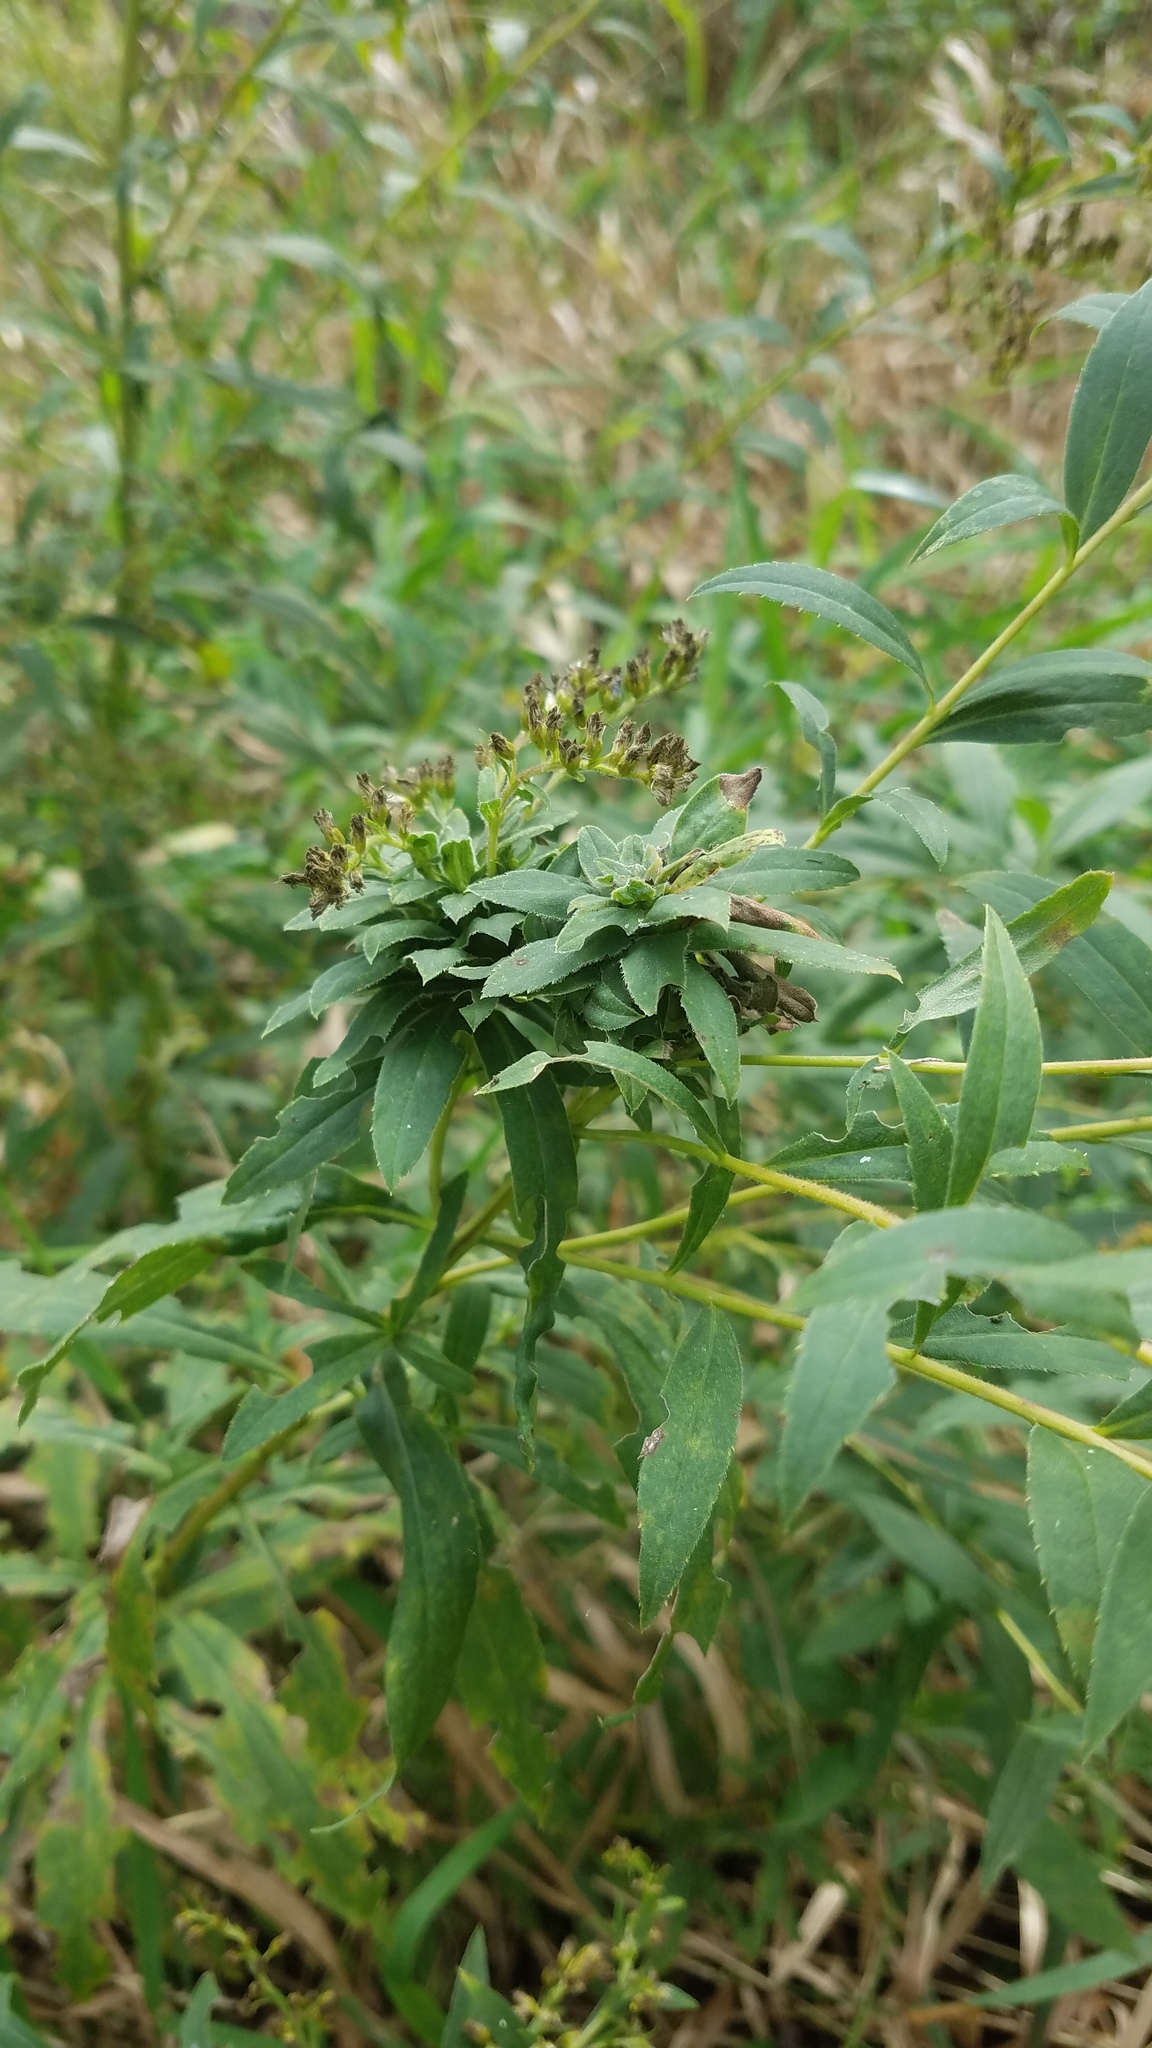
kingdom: Animalia
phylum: Arthropoda
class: Insecta
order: Diptera
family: Cecidomyiidae
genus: Rhopalomyia
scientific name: Rhopalomyia solidaginis
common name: Goldenrod bunch gall midge
